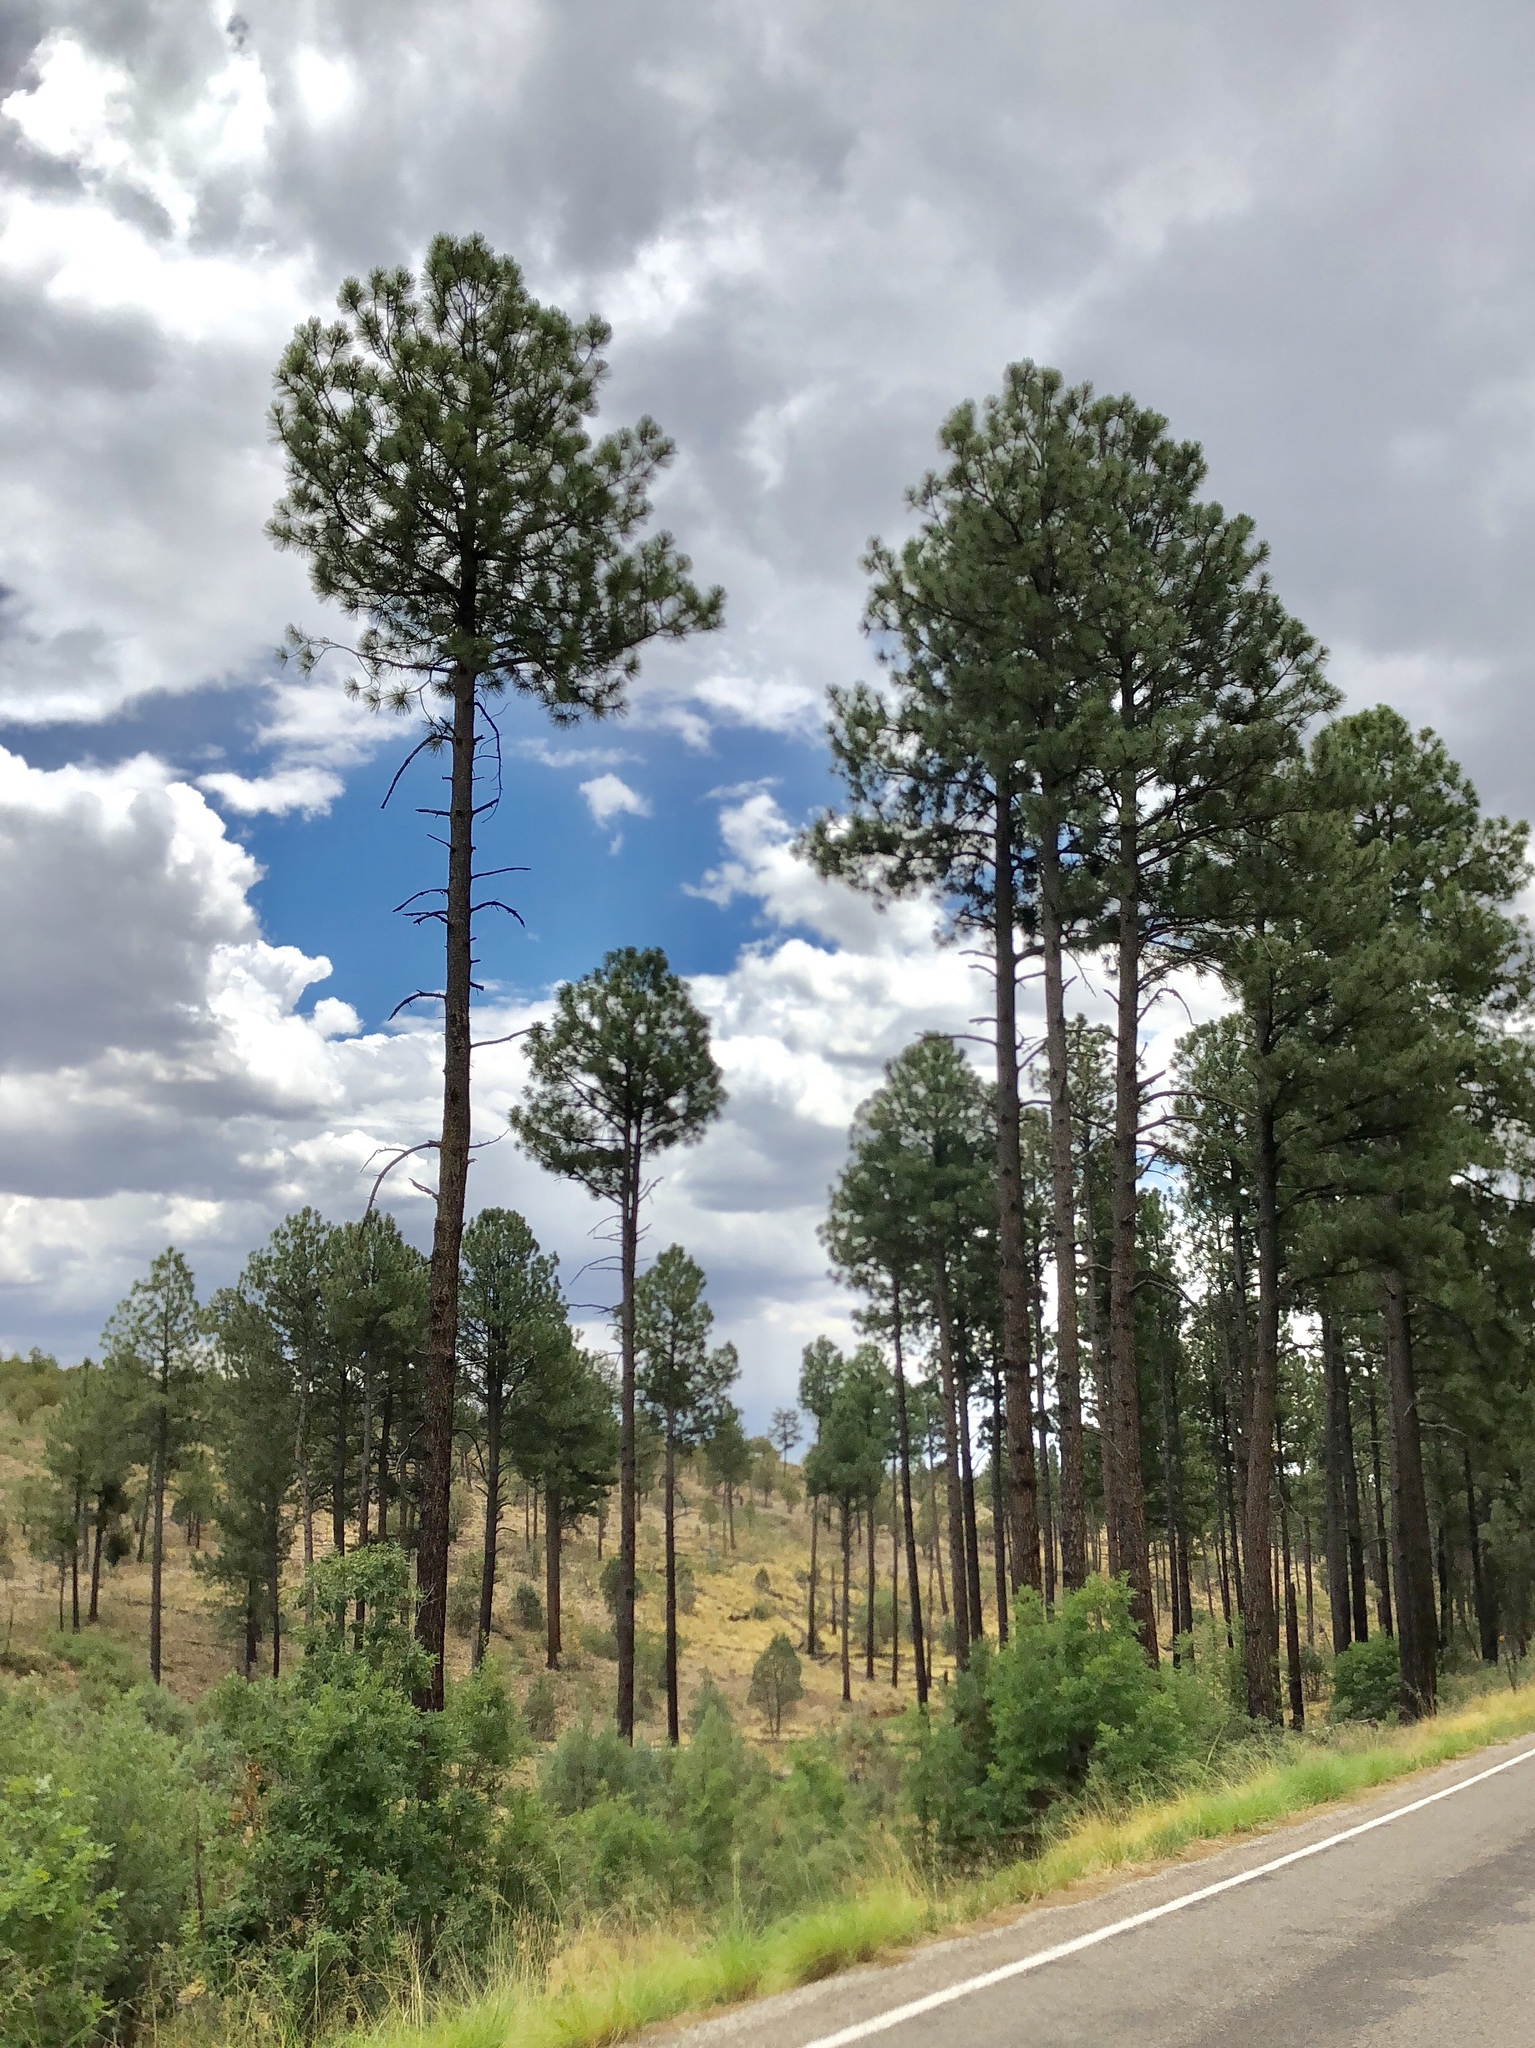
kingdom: Plantae
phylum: Tracheophyta
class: Pinopsida
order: Pinales
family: Pinaceae
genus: Pinus
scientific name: Pinus ponderosa
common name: Western yellow-pine
